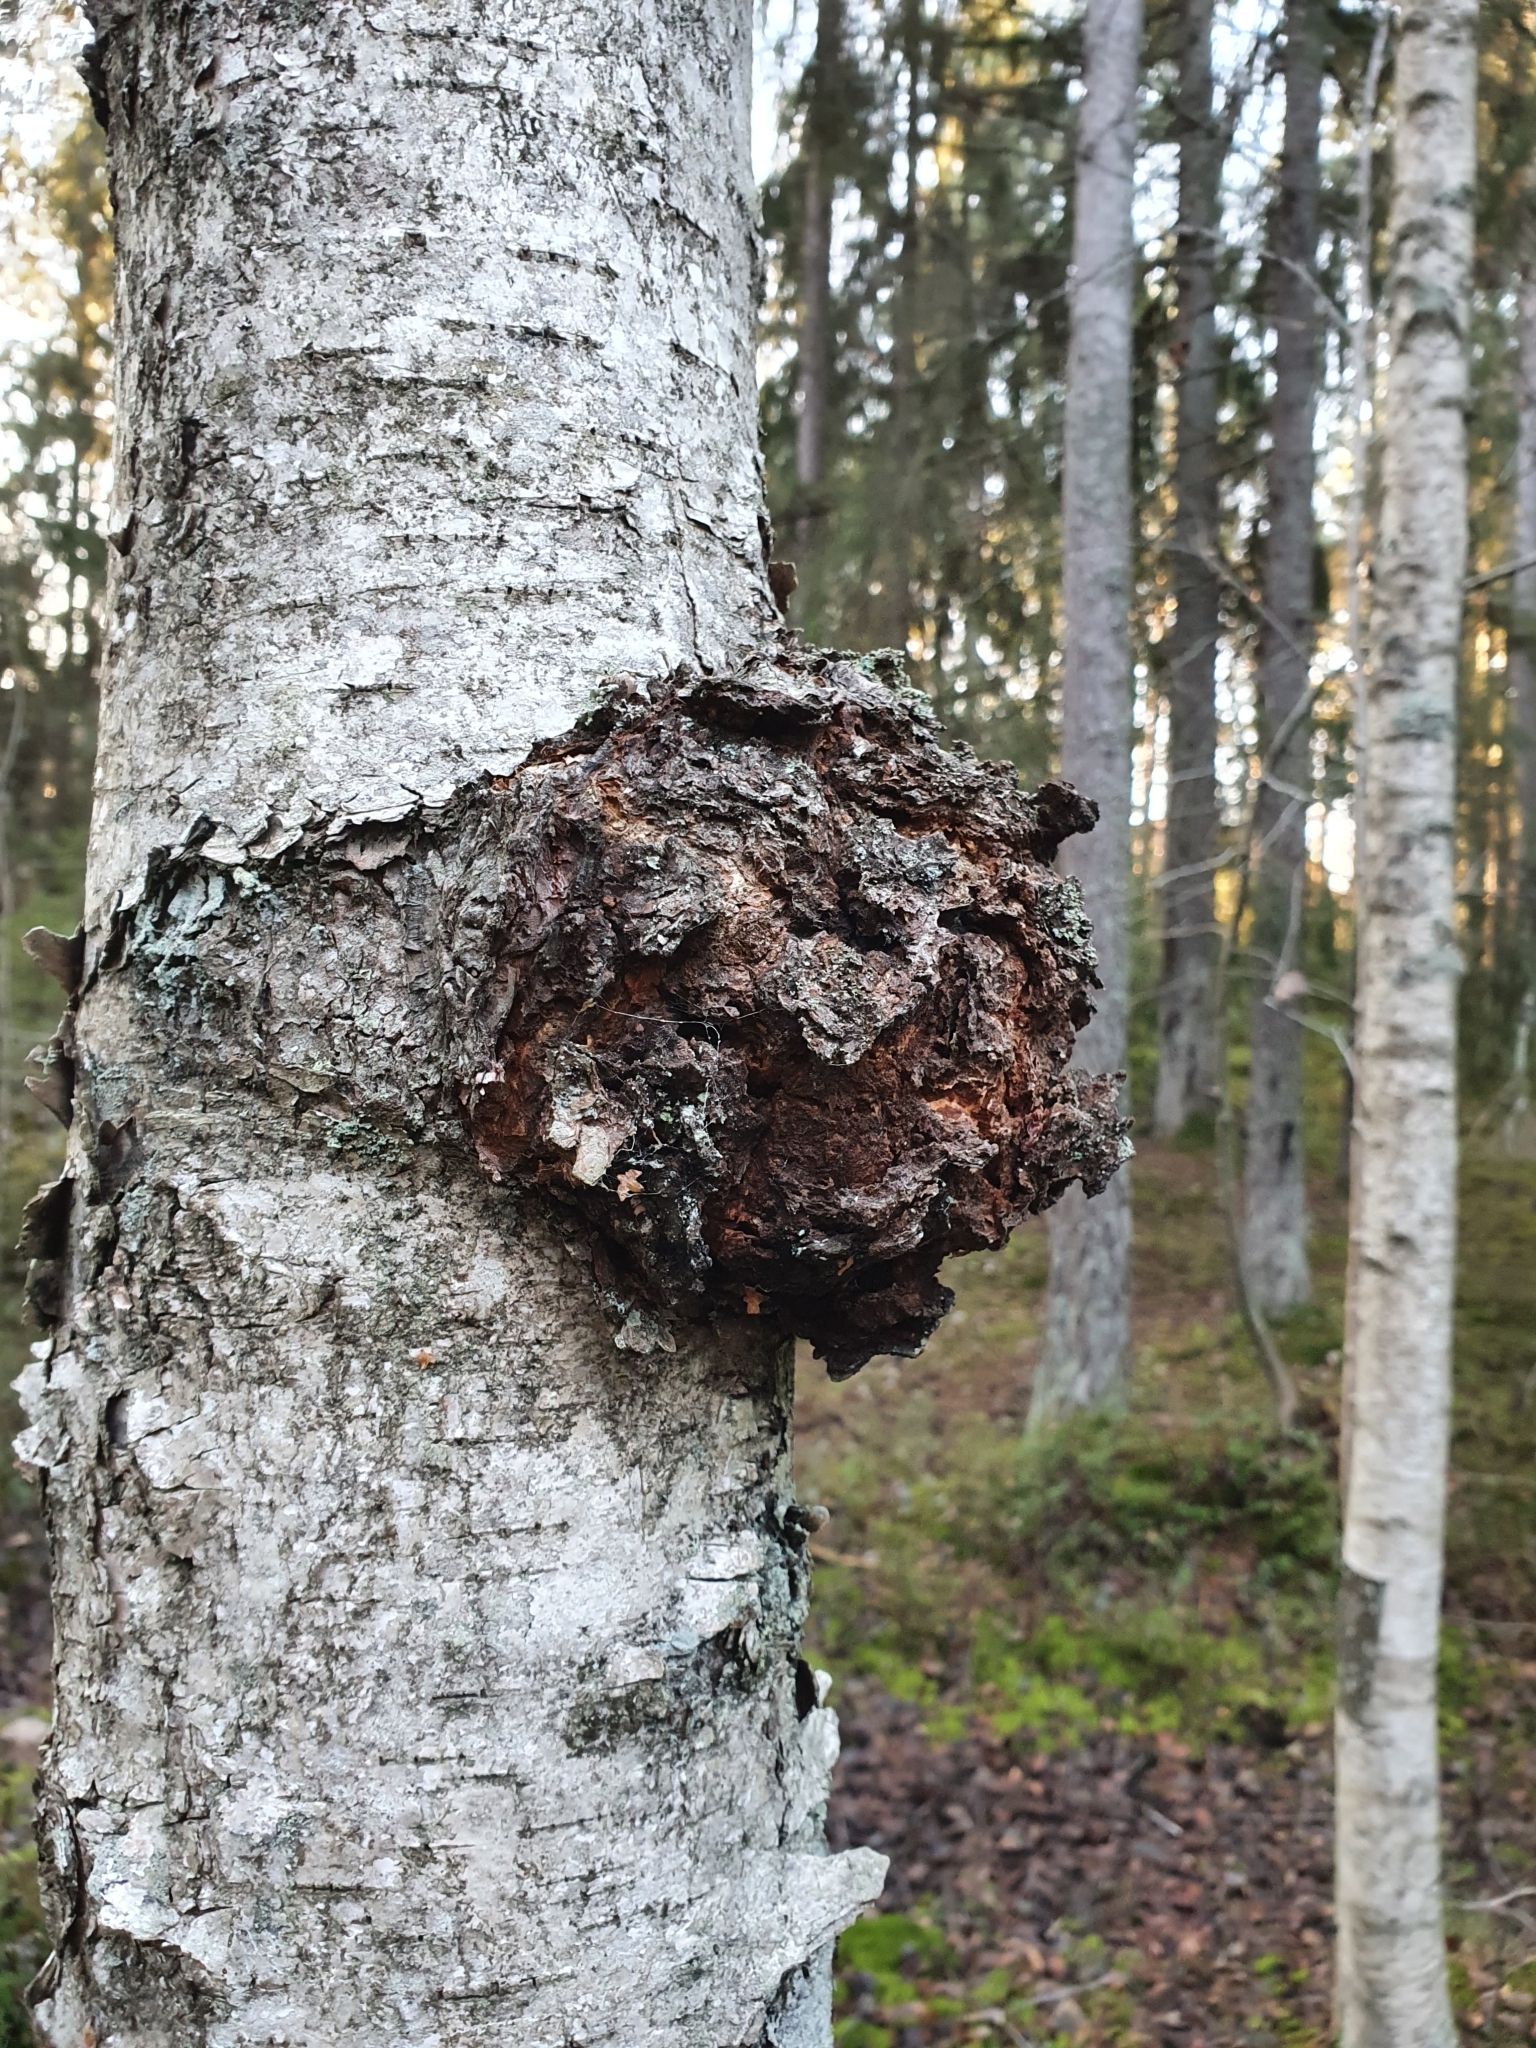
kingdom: Bacteria
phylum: Proteobacteria
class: Alphaproteobacteria
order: Rhizobiales
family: Rhizobiaceae
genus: Rhizobium
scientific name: Rhizobium Agrobacterium radiobacter
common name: Bacterial crown gall
